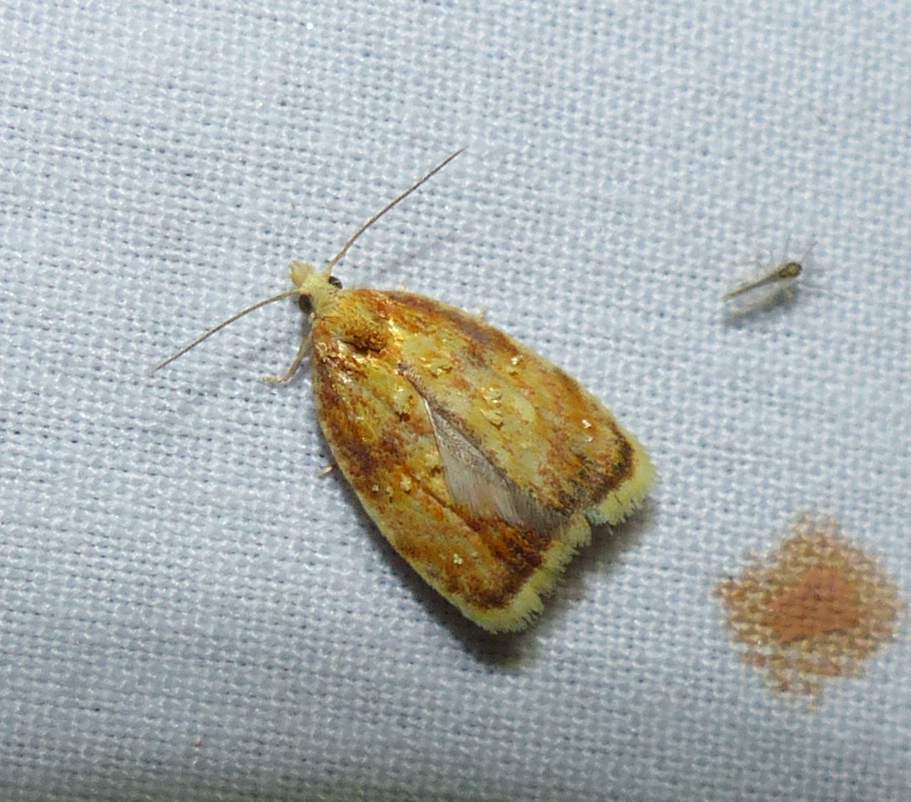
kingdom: Animalia
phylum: Arthropoda
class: Insecta
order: Lepidoptera
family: Tortricidae
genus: Acleris
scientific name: Acleris curvalana
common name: Blueberry leaftier moth
